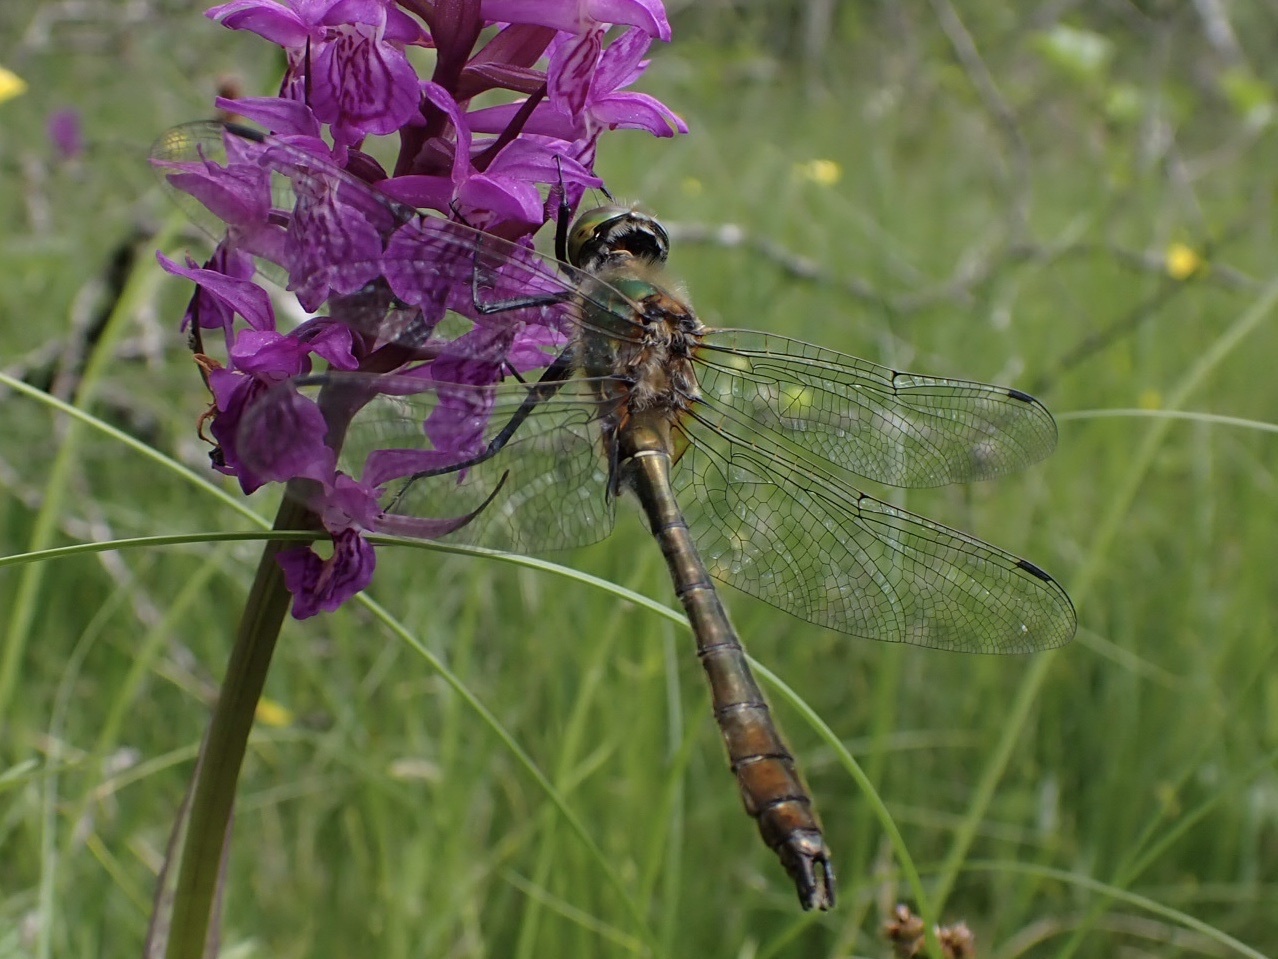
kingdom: Animalia
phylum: Arthropoda
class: Insecta
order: Odonata
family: Corduliidae
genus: Cordulia
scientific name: Cordulia aenea
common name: Downy emerald
